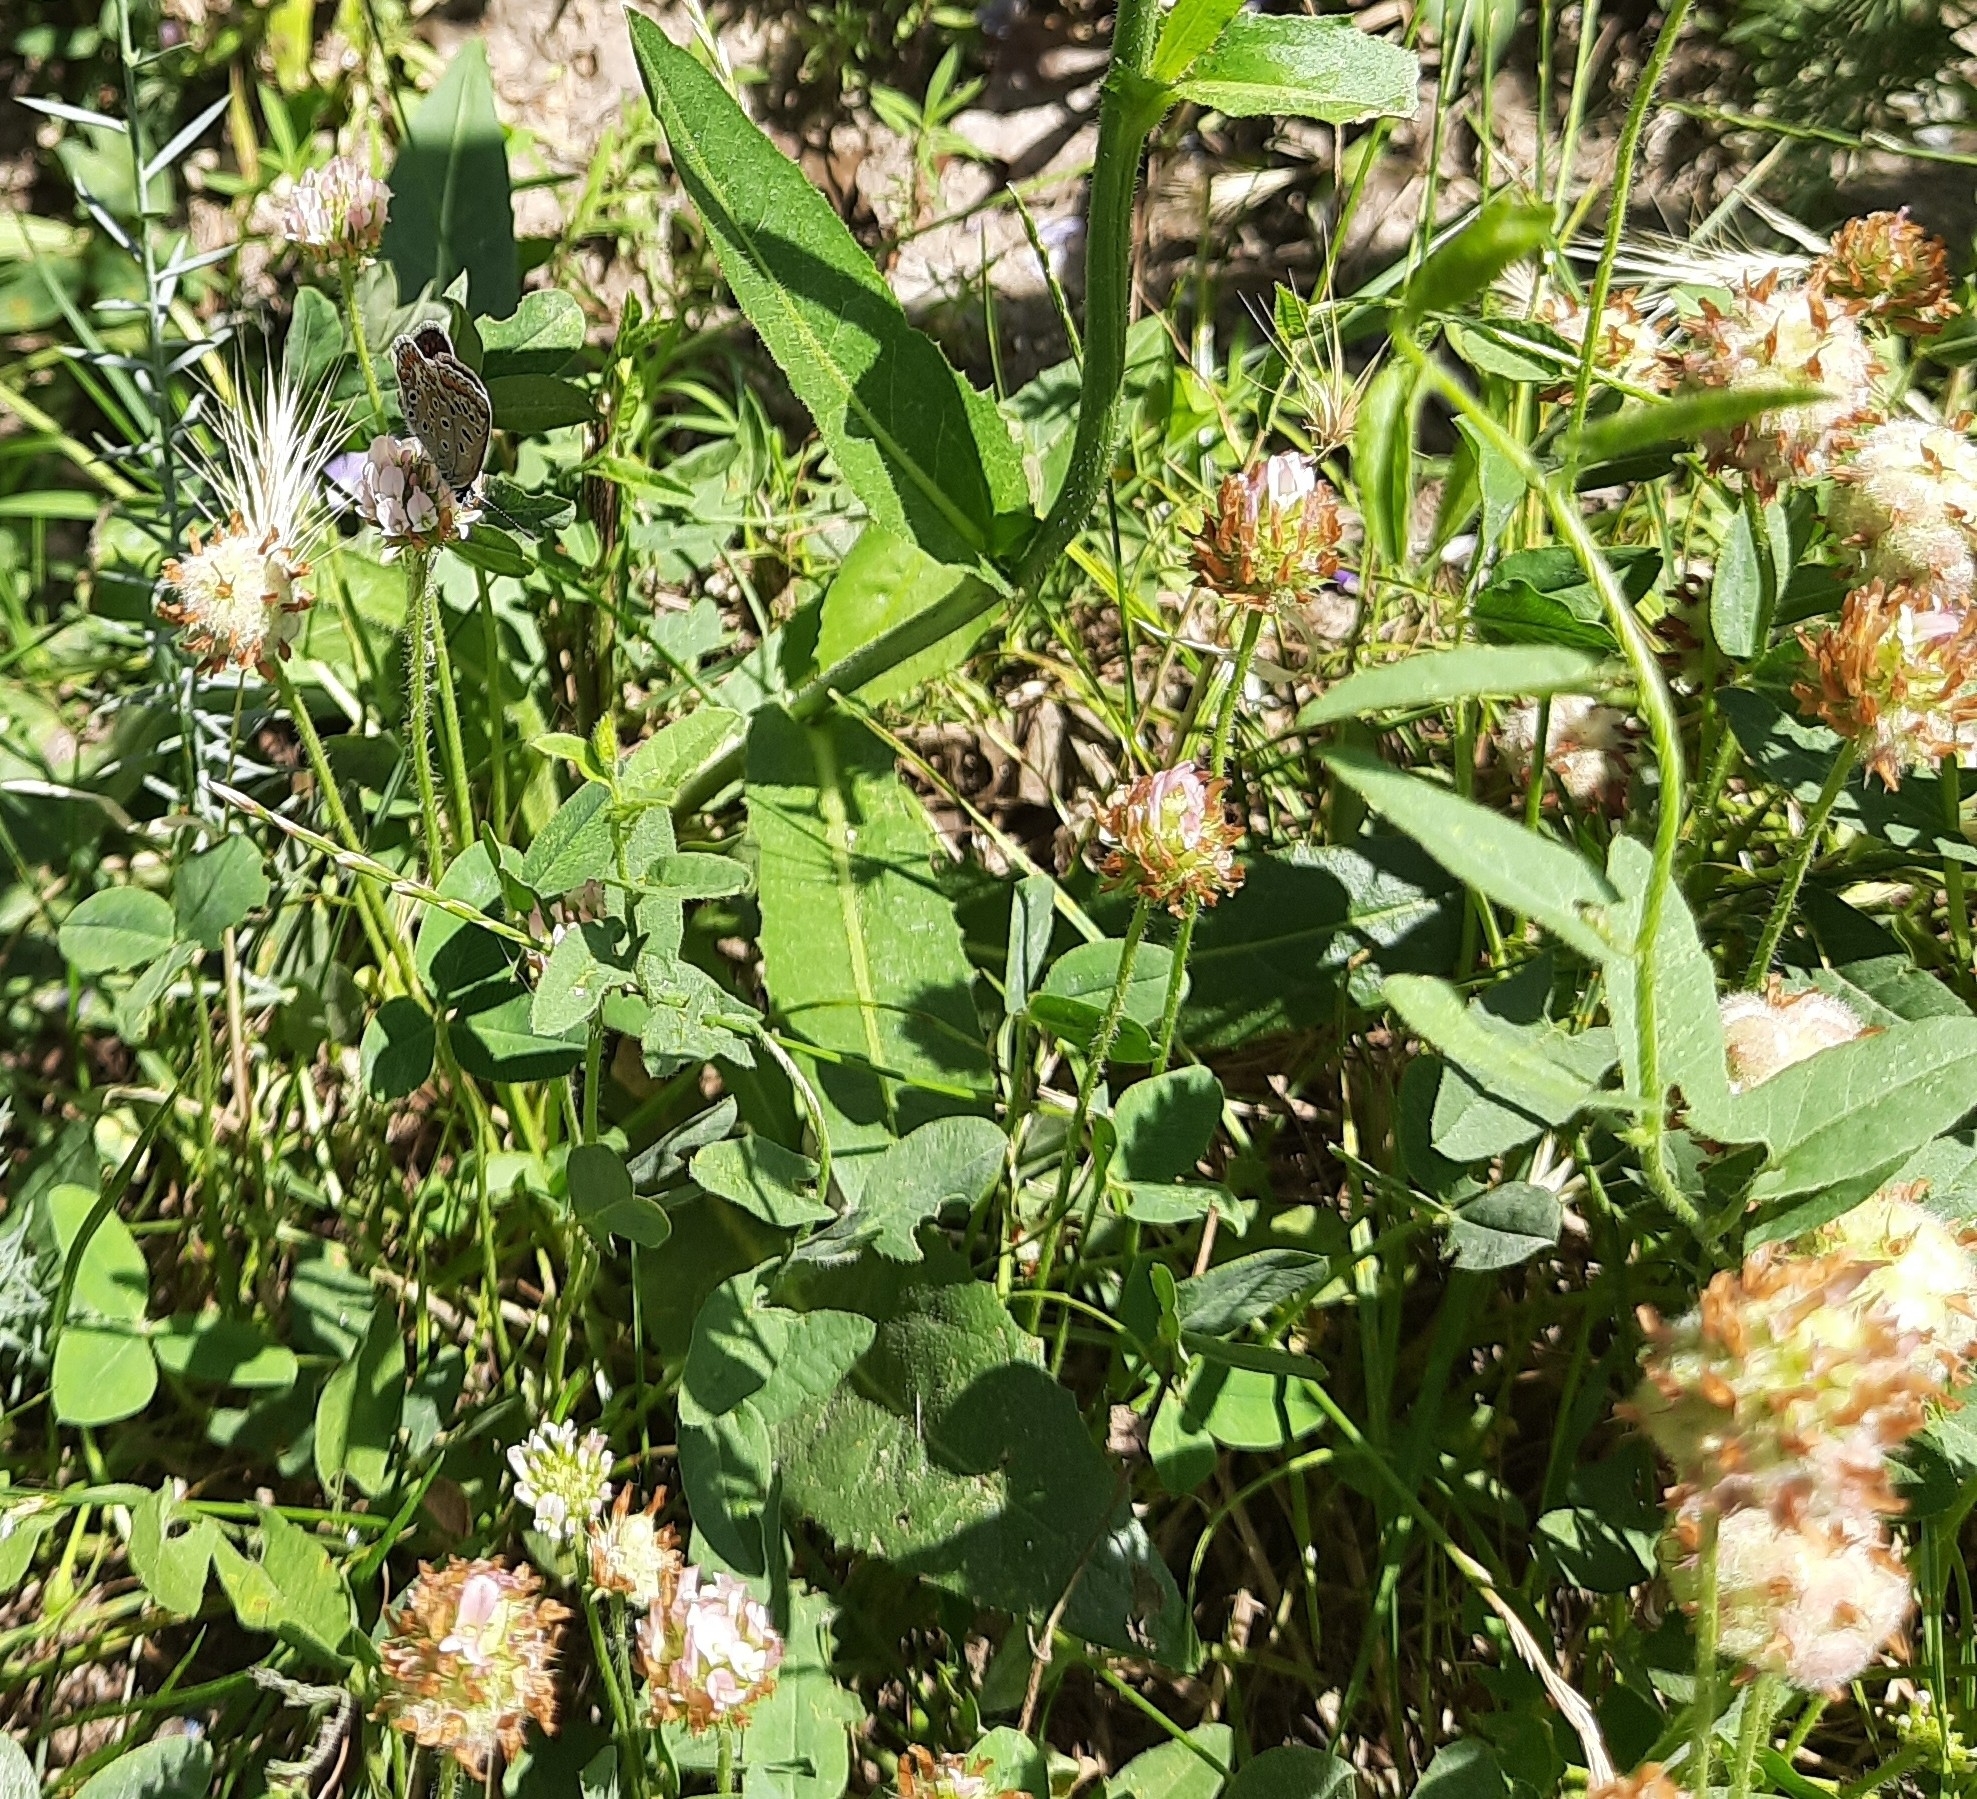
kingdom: Plantae
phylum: Tracheophyta
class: Magnoliopsida
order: Fabales
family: Fabaceae
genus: Trifolium
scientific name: Trifolium fragiferum
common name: Strawberry clover
